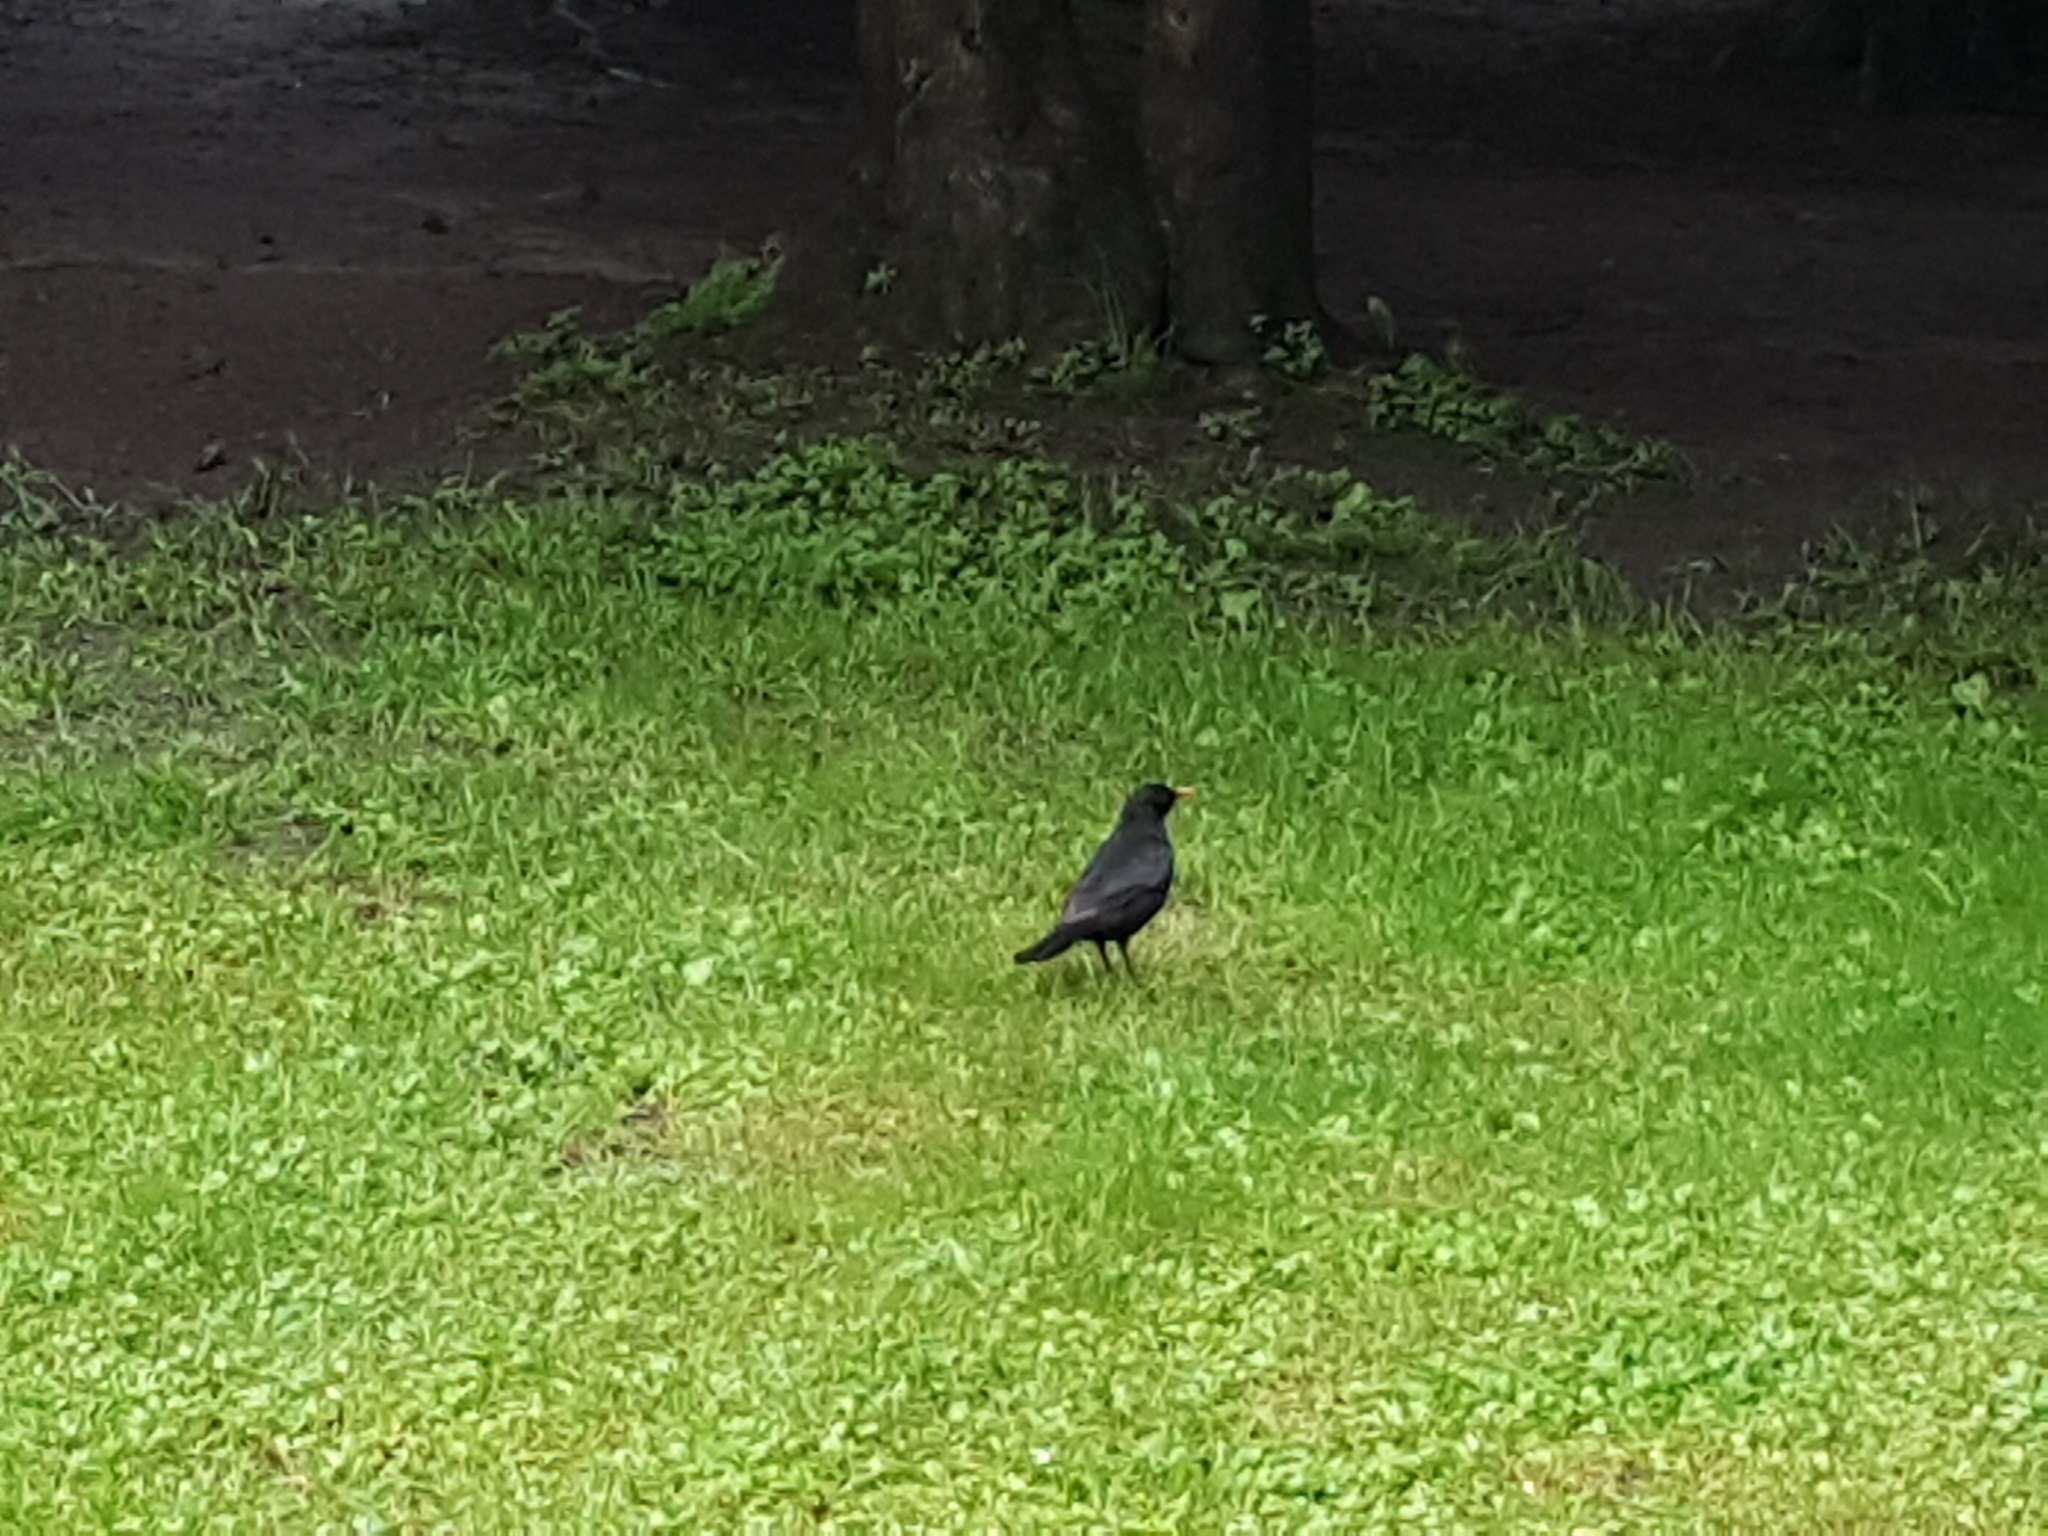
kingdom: Animalia
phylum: Chordata
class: Aves
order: Passeriformes
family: Turdidae
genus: Turdus
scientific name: Turdus merula
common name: Common blackbird
